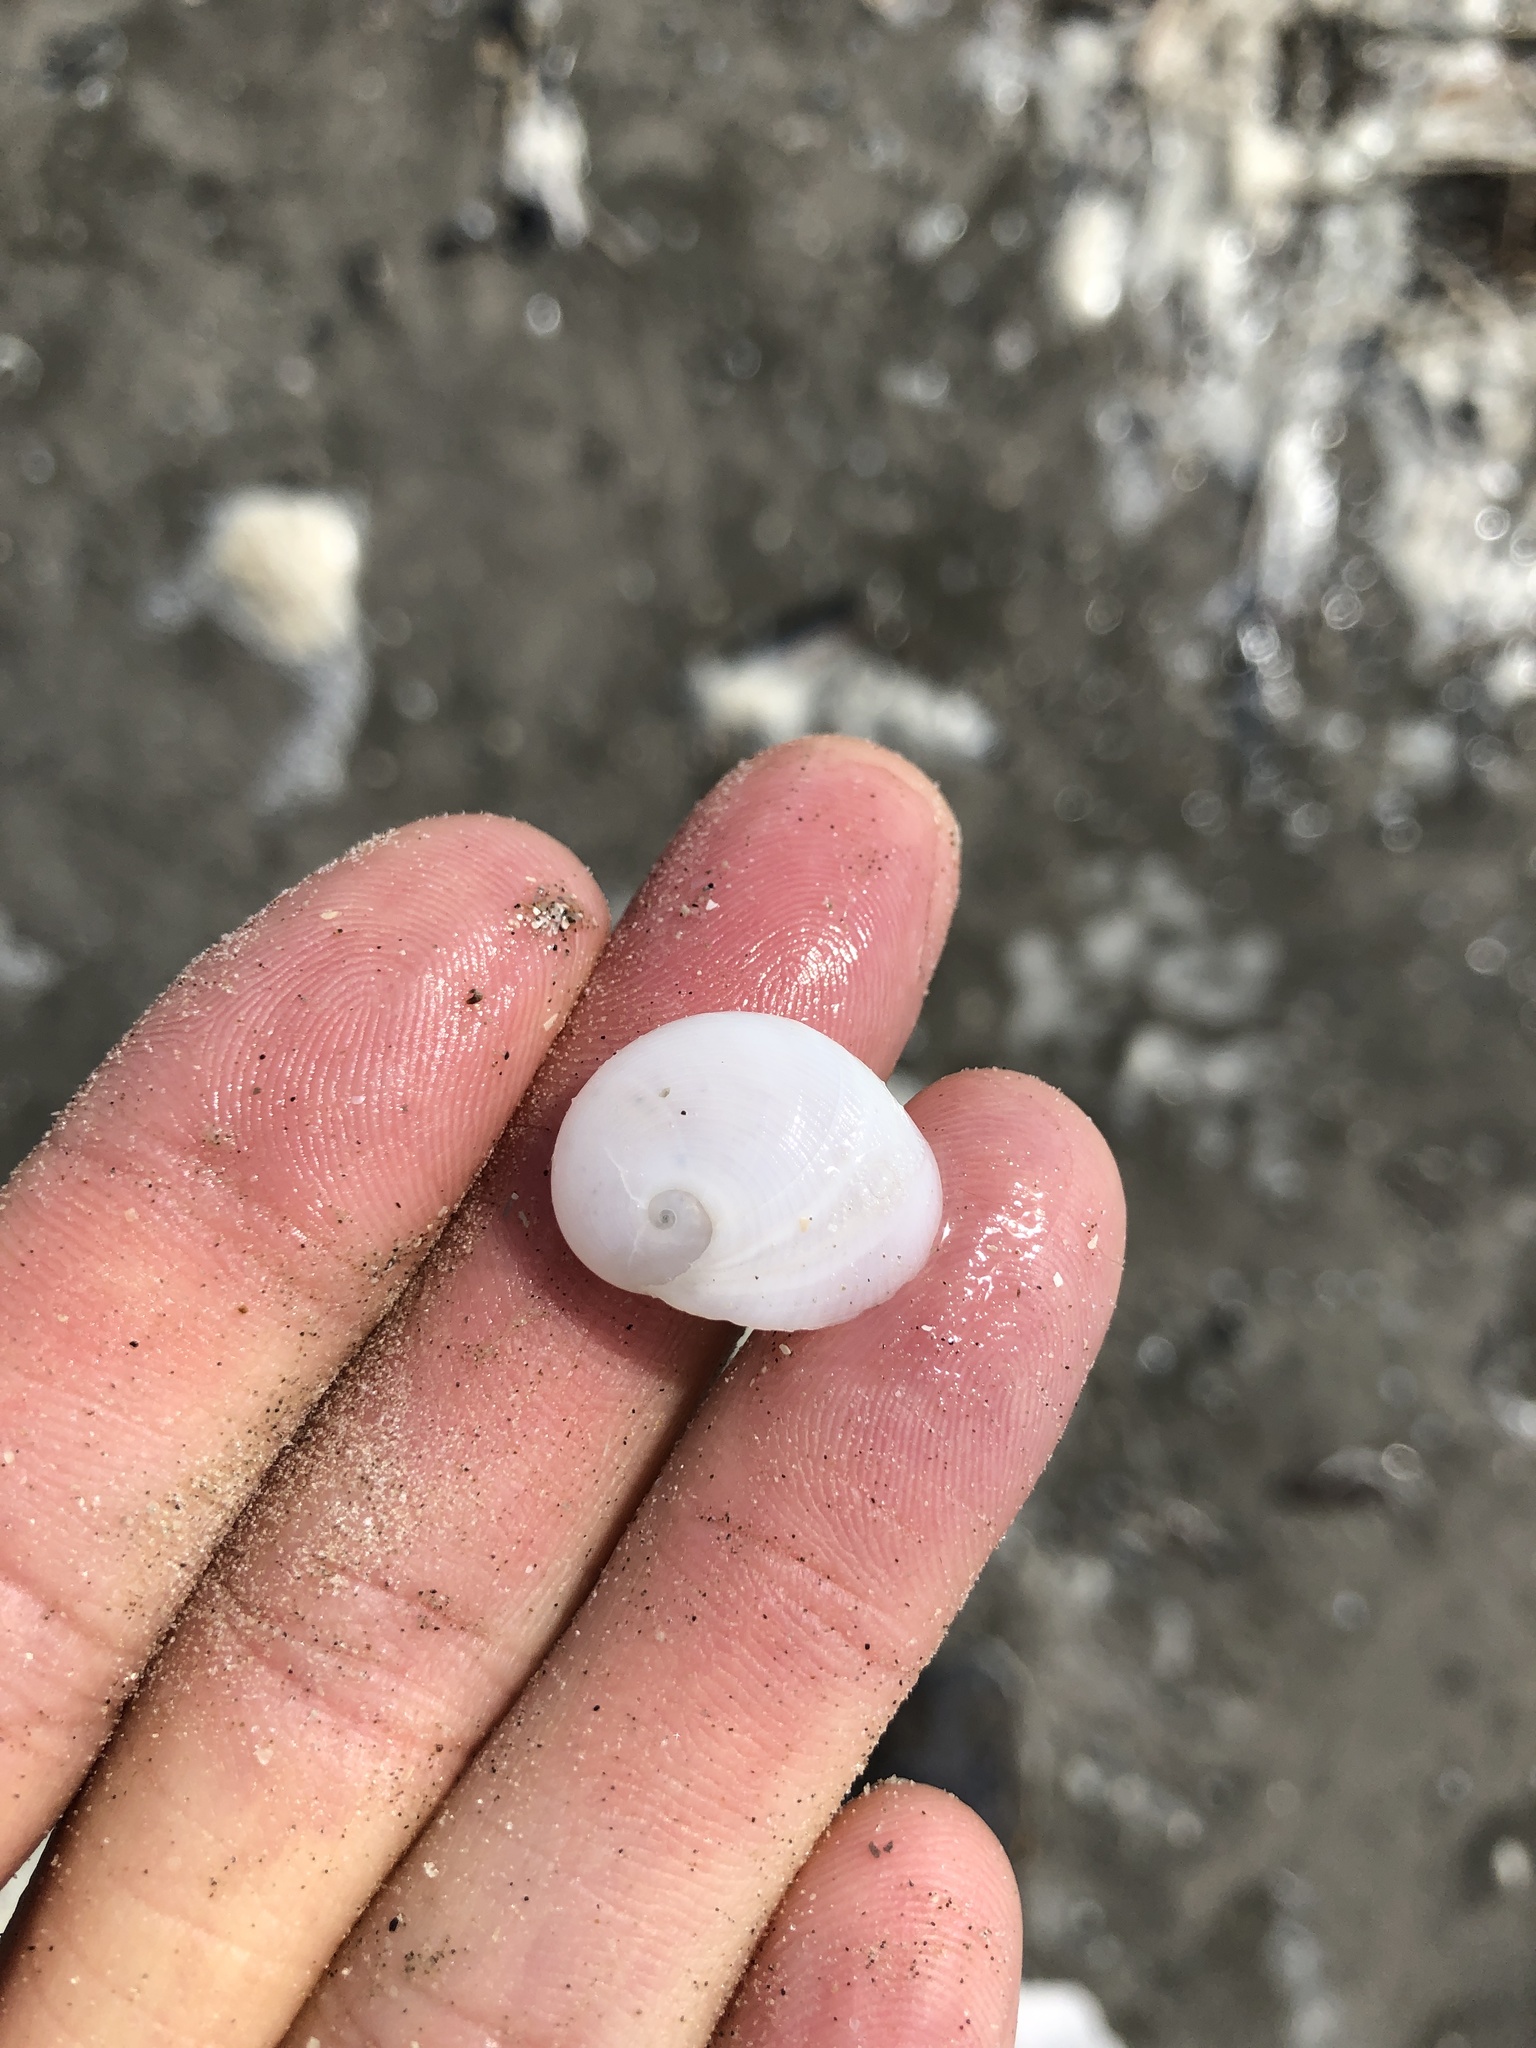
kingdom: Animalia
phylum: Mollusca
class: Gastropoda
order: Littorinimorpha
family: Naticidae
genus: Sinum
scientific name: Sinum perspectivum
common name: White baby ear
